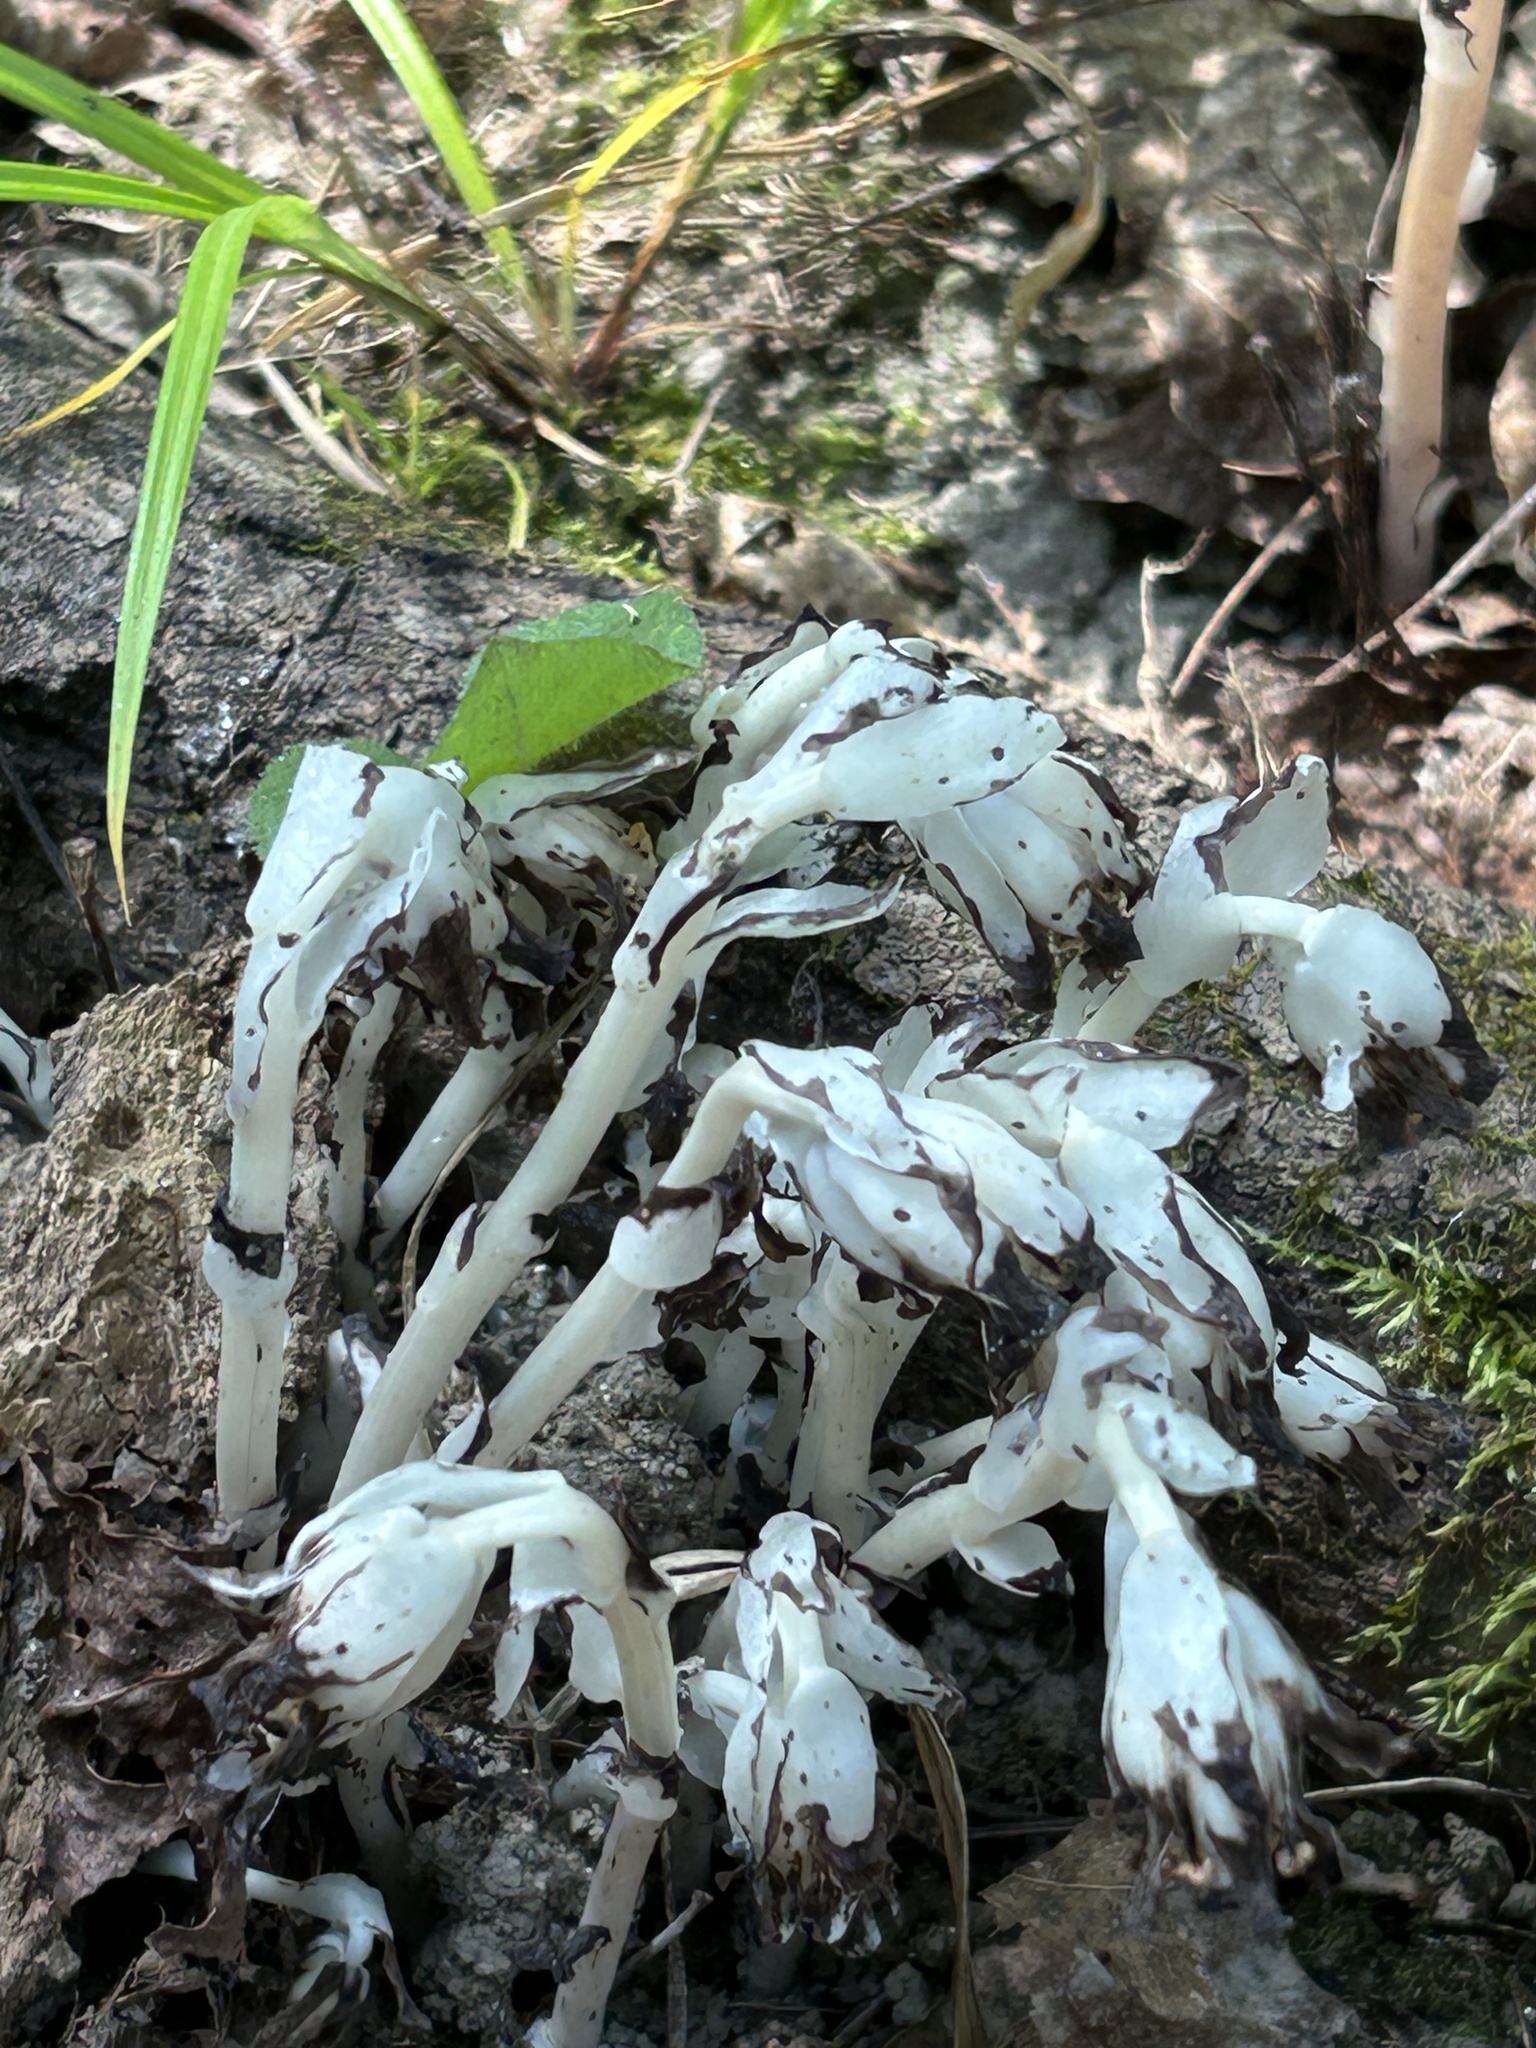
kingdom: Plantae
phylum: Tracheophyta
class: Magnoliopsida
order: Ericales
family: Ericaceae
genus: Monotropa
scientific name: Monotropa uniflora
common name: Convulsion root
